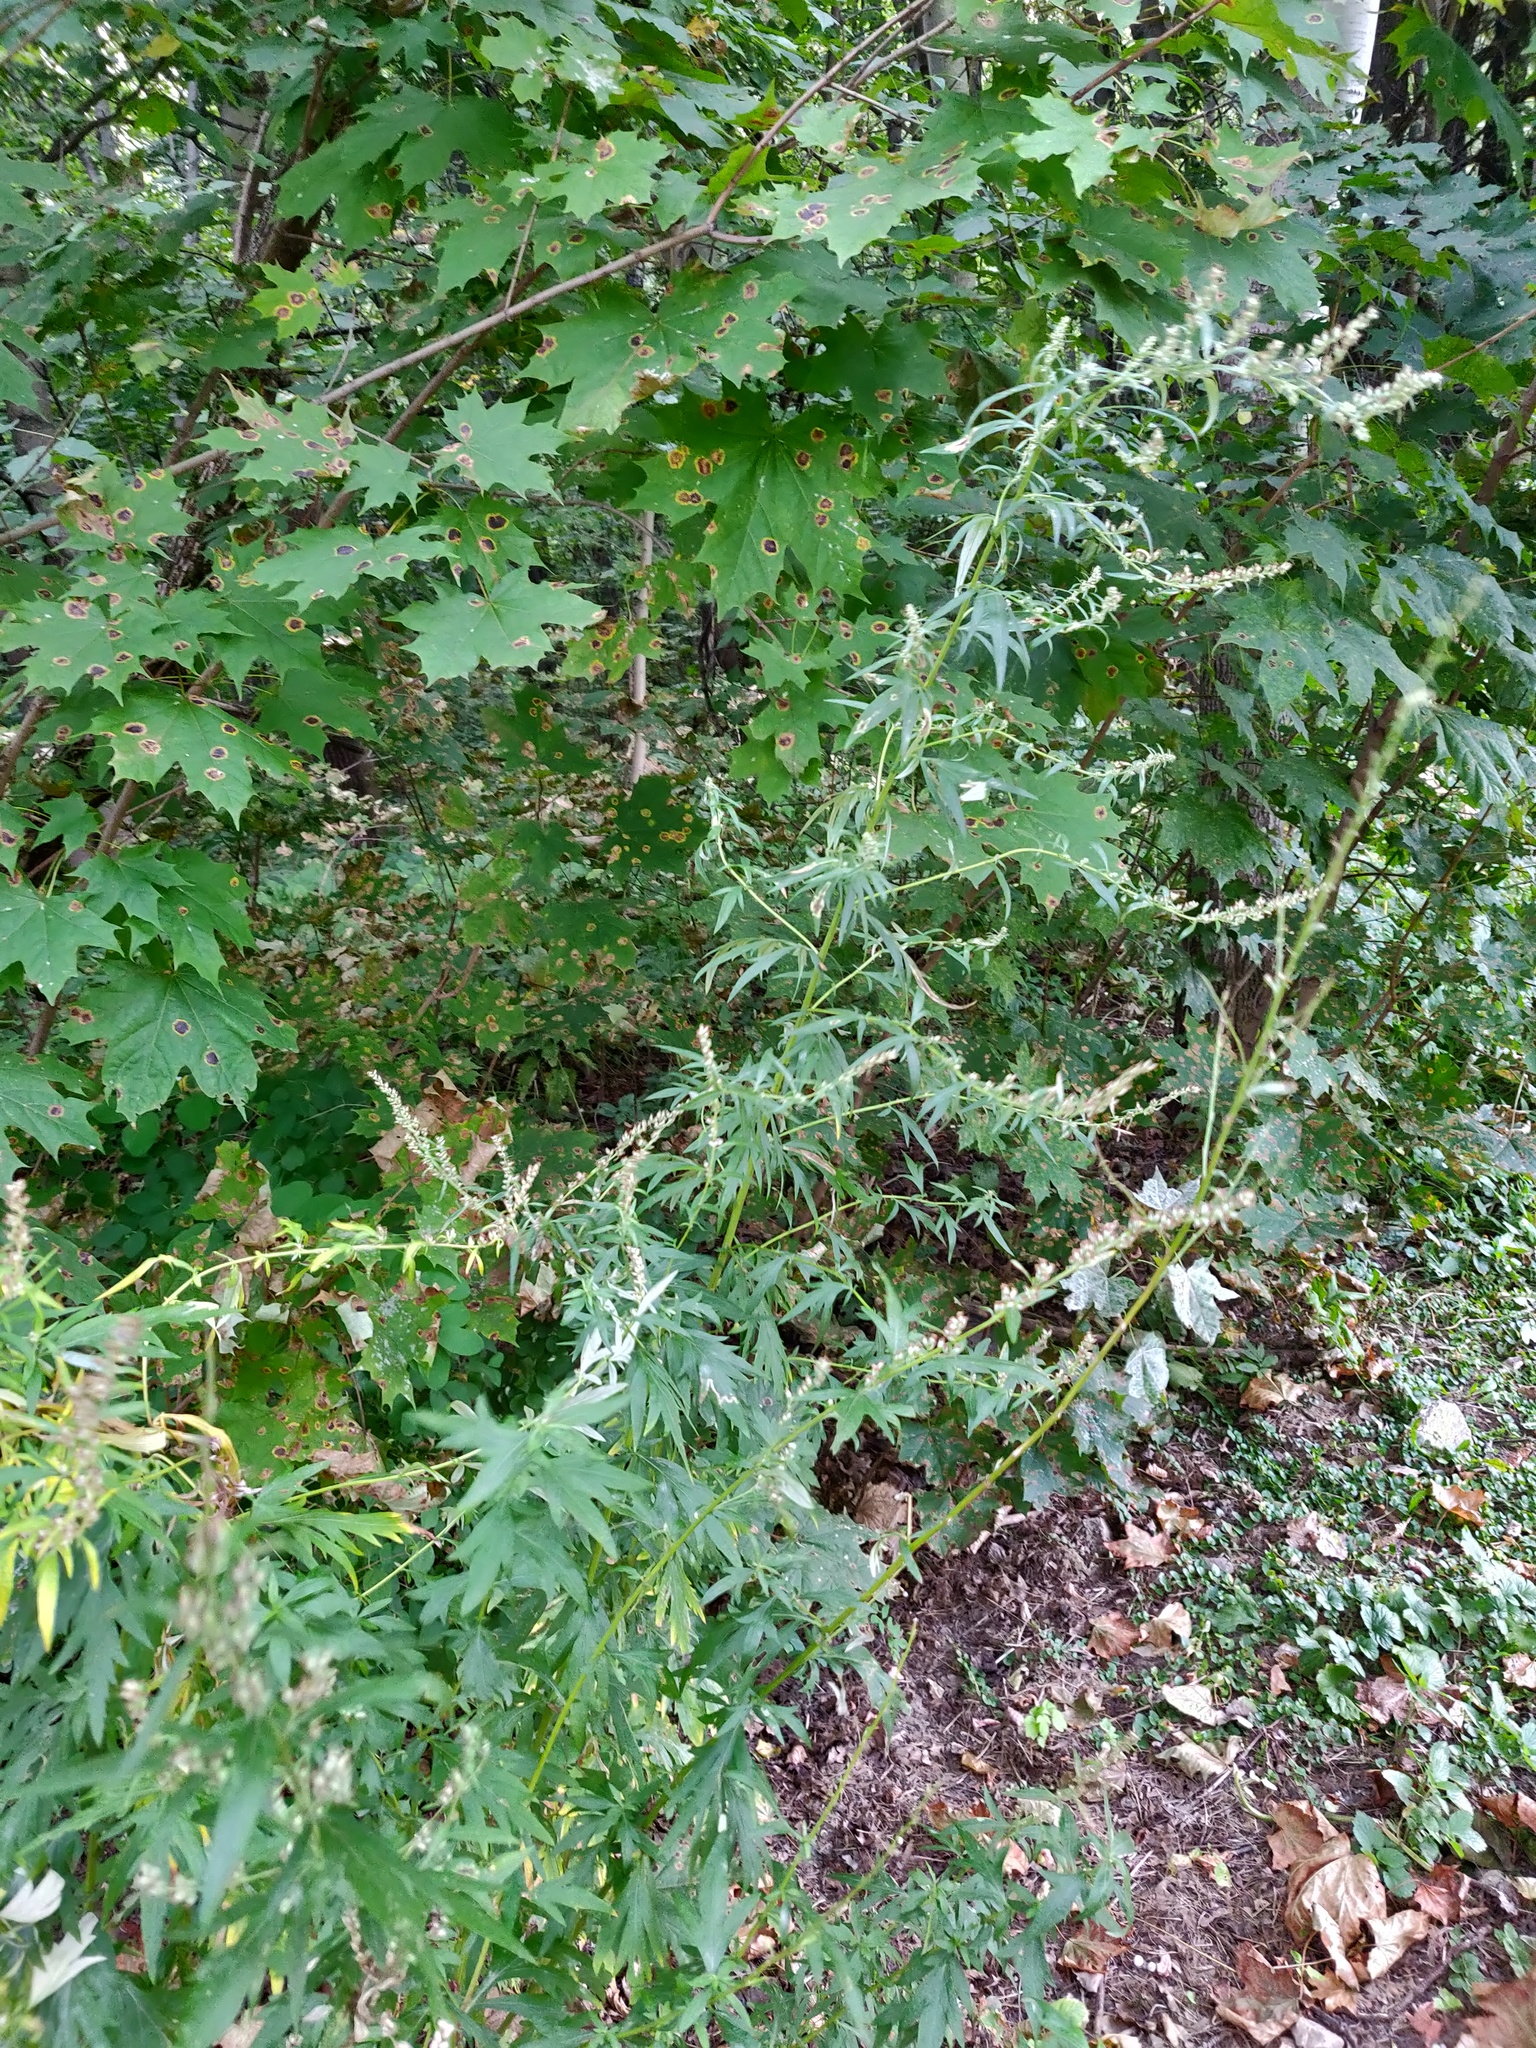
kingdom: Plantae
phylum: Tracheophyta
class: Magnoliopsida
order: Asterales
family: Asteraceae
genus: Artemisia
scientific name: Artemisia vulgaris
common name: Mugwort
